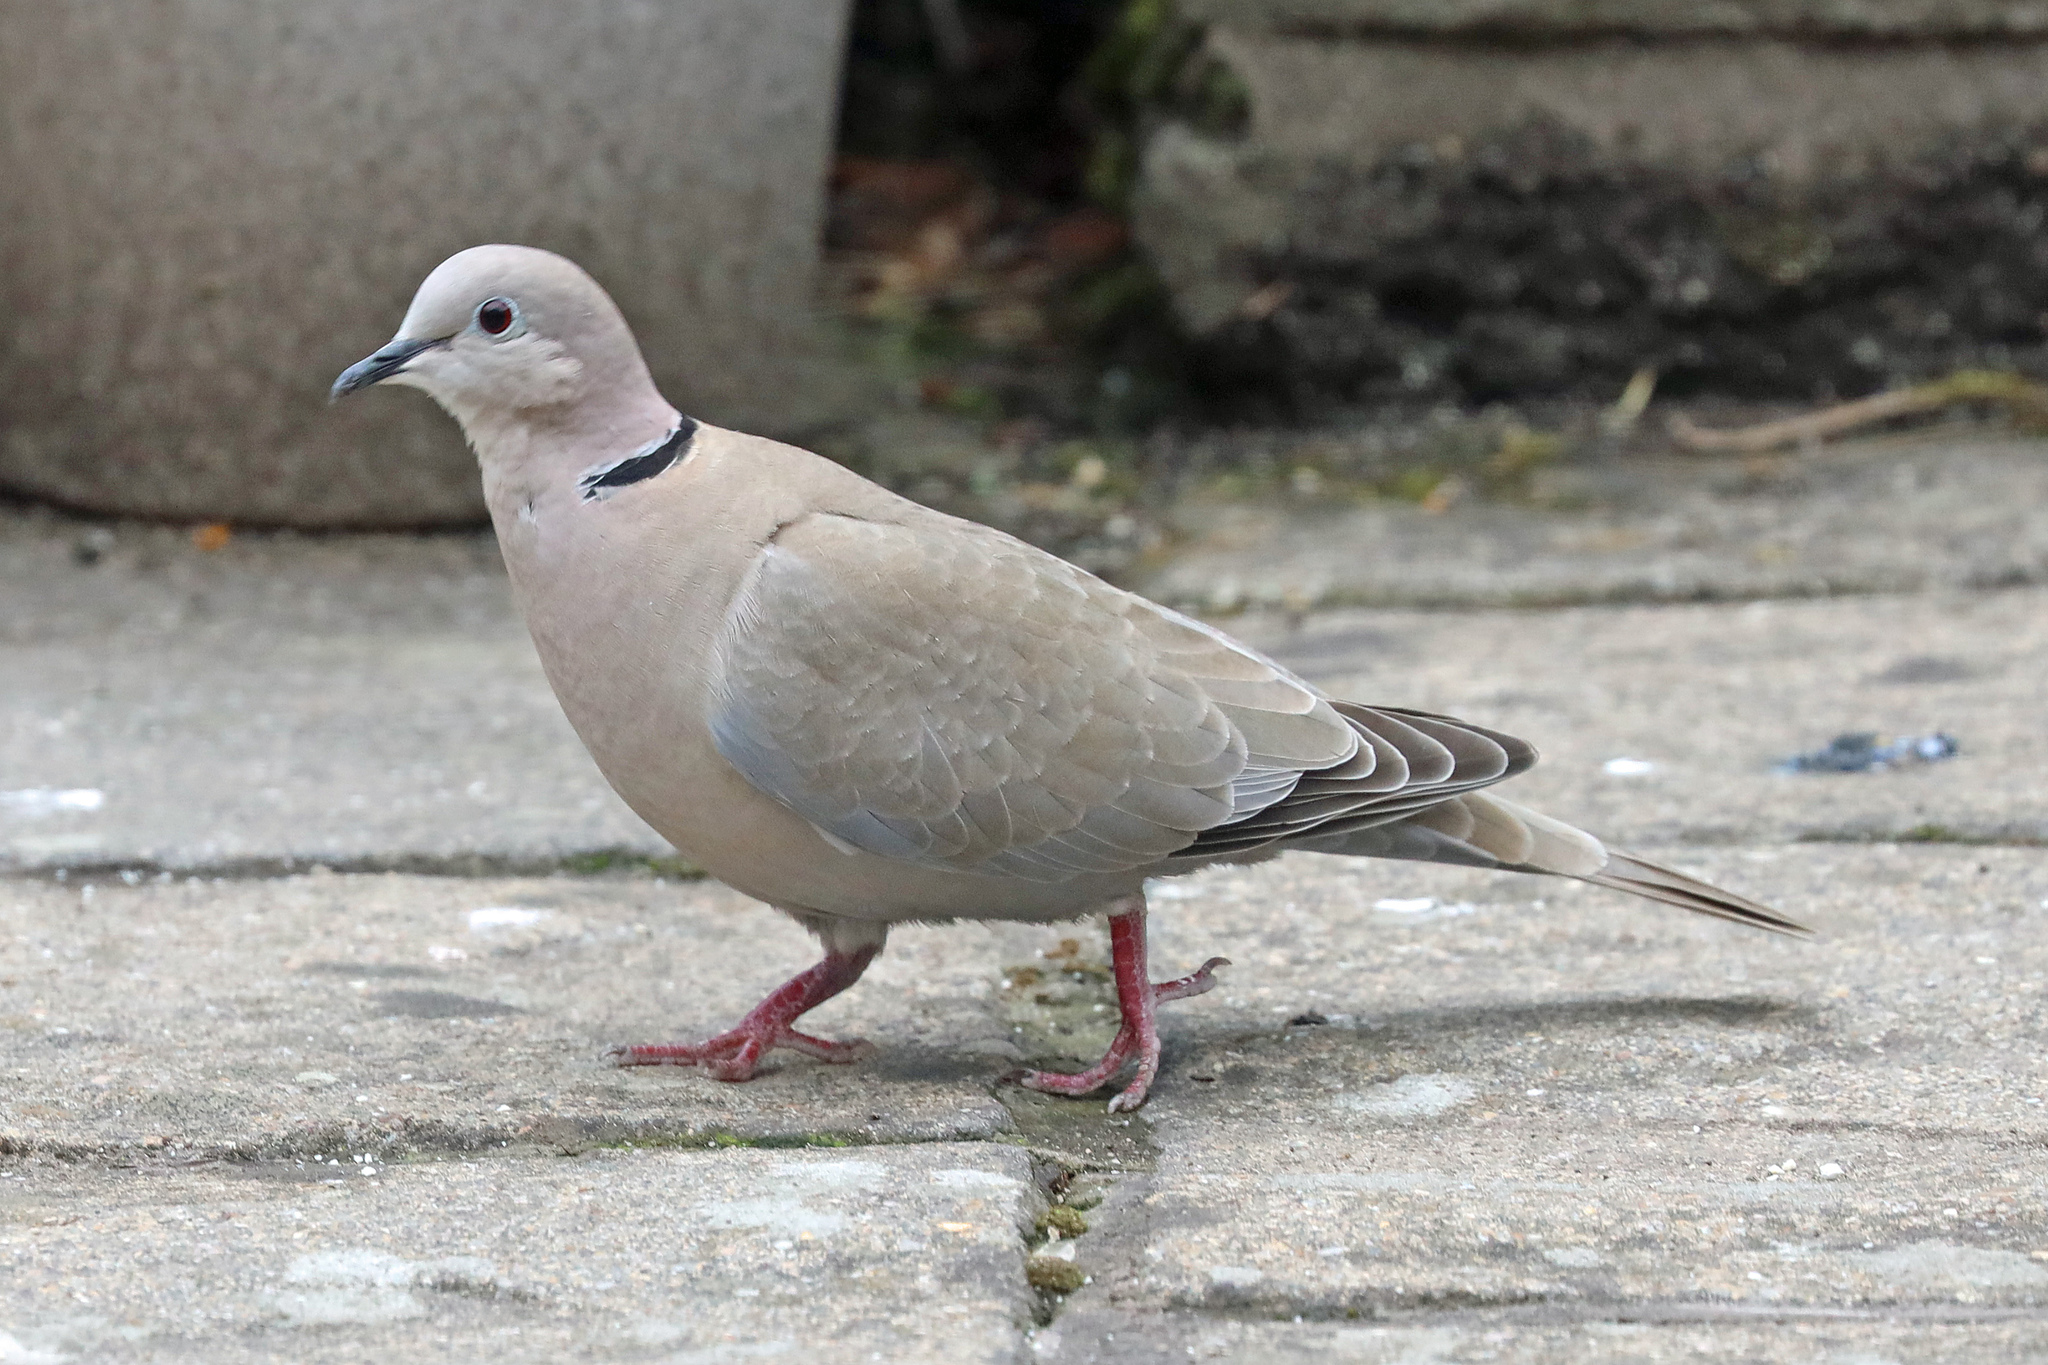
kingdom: Animalia
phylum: Chordata
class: Aves
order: Columbiformes
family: Columbidae
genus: Streptopelia
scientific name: Streptopelia decaocto
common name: Eurasian collared dove
